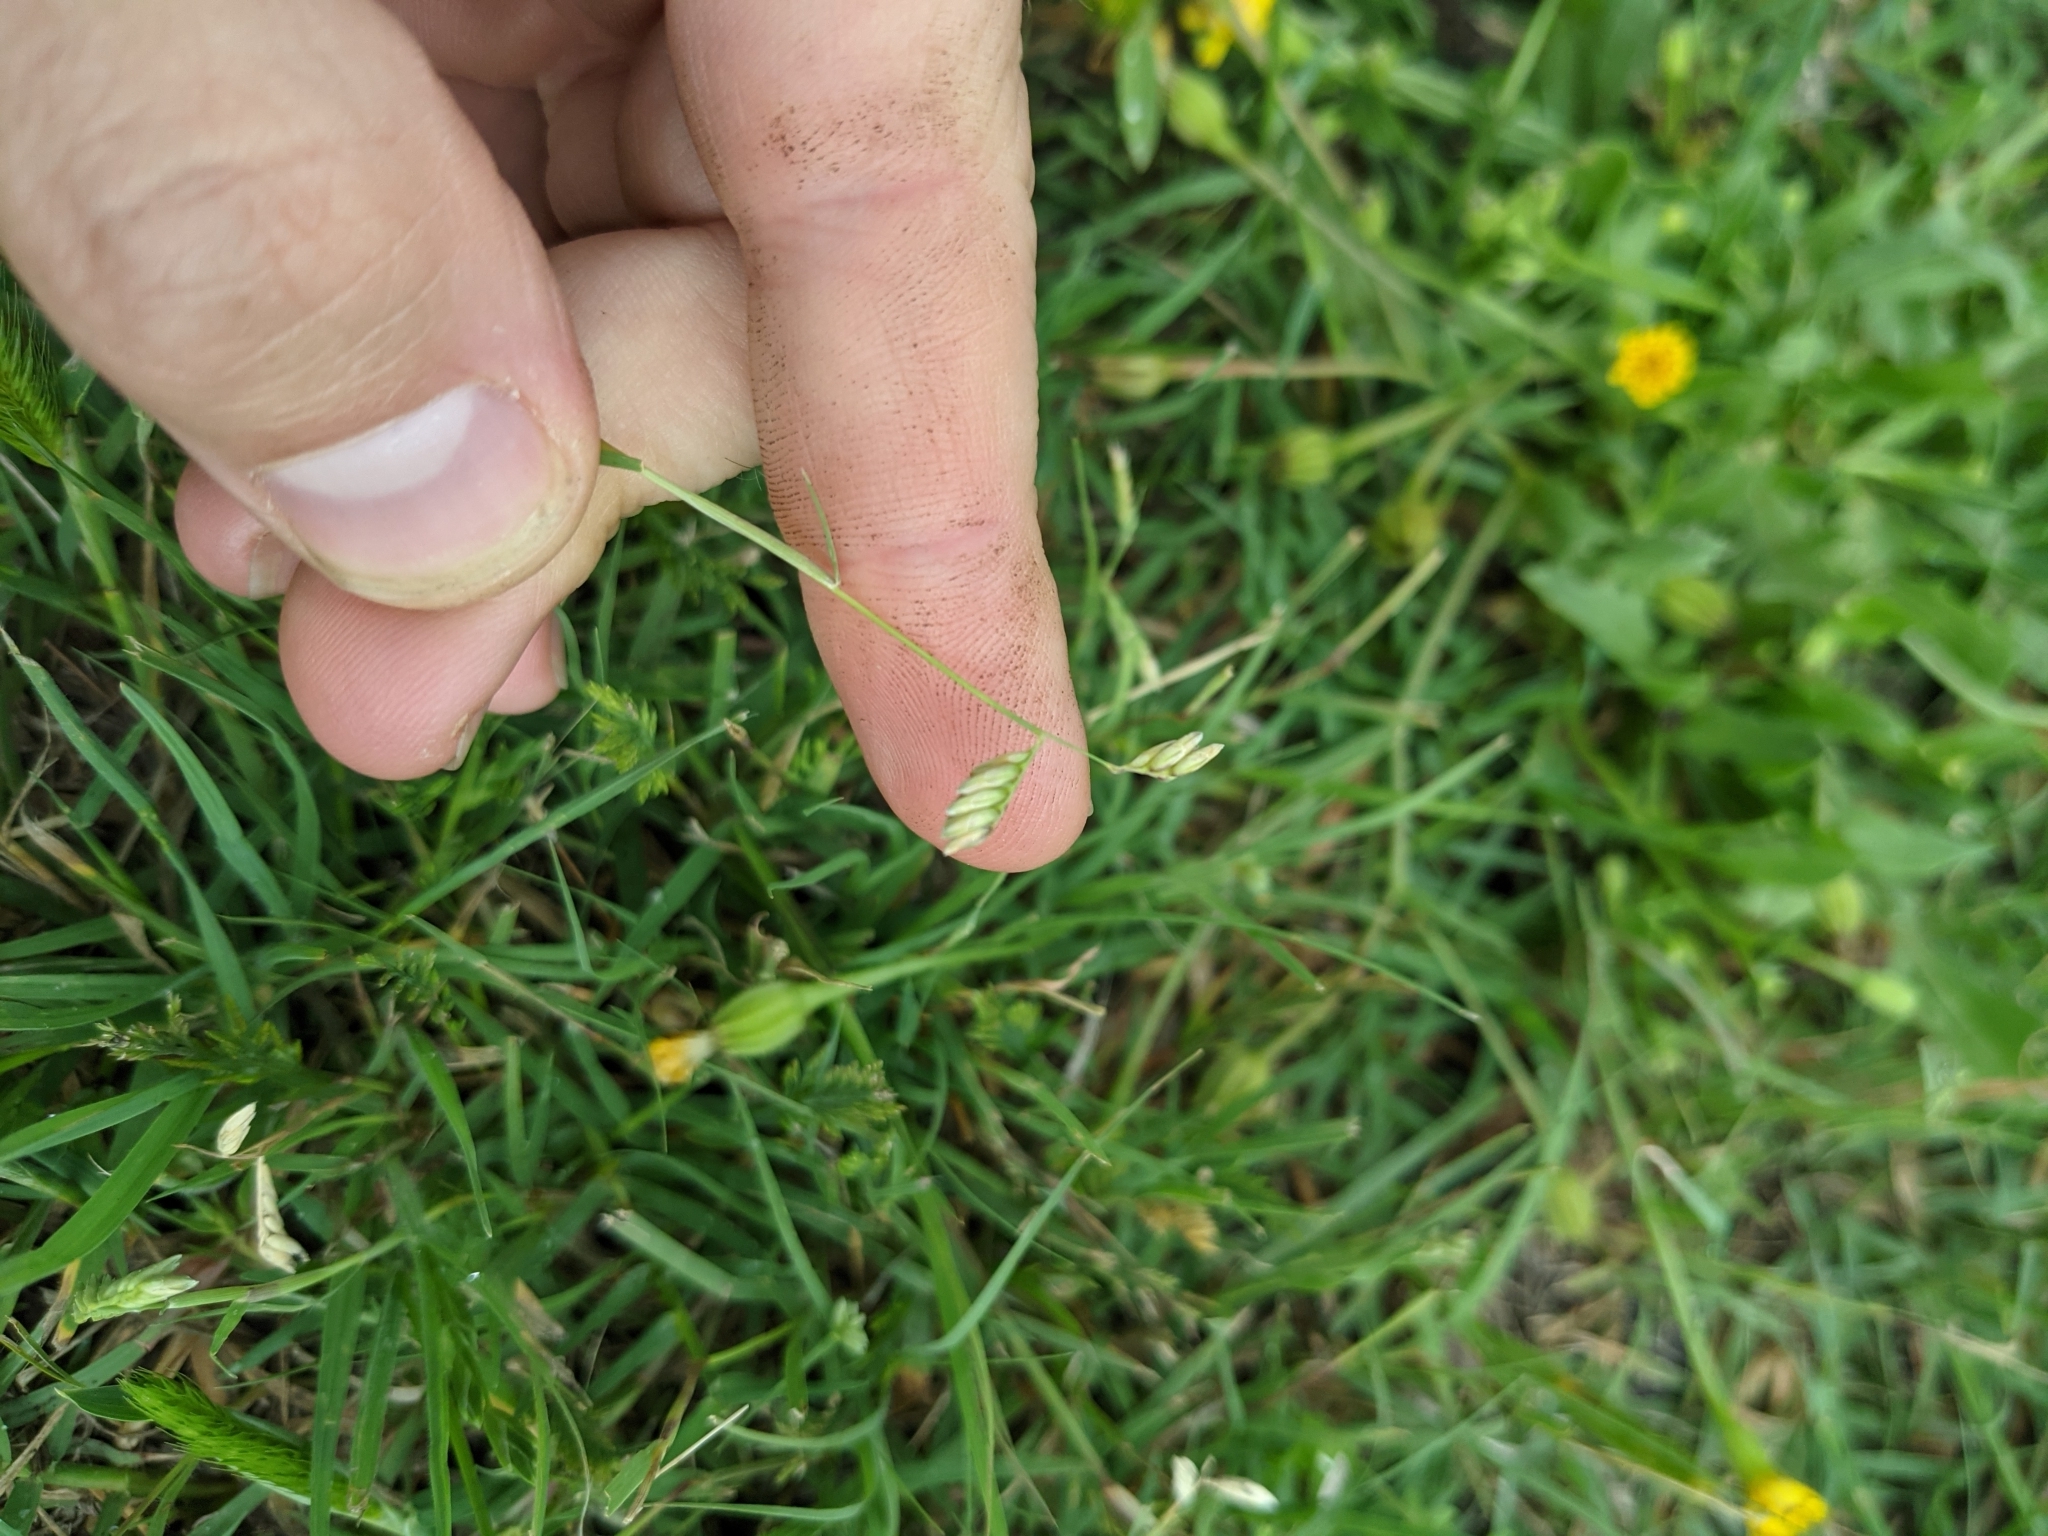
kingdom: Plantae
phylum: Tracheophyta
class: Liliopsida
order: Poales
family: Poaceae
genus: Bouteloua
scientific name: Bouteloua dactyloides
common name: Buffalo grass
